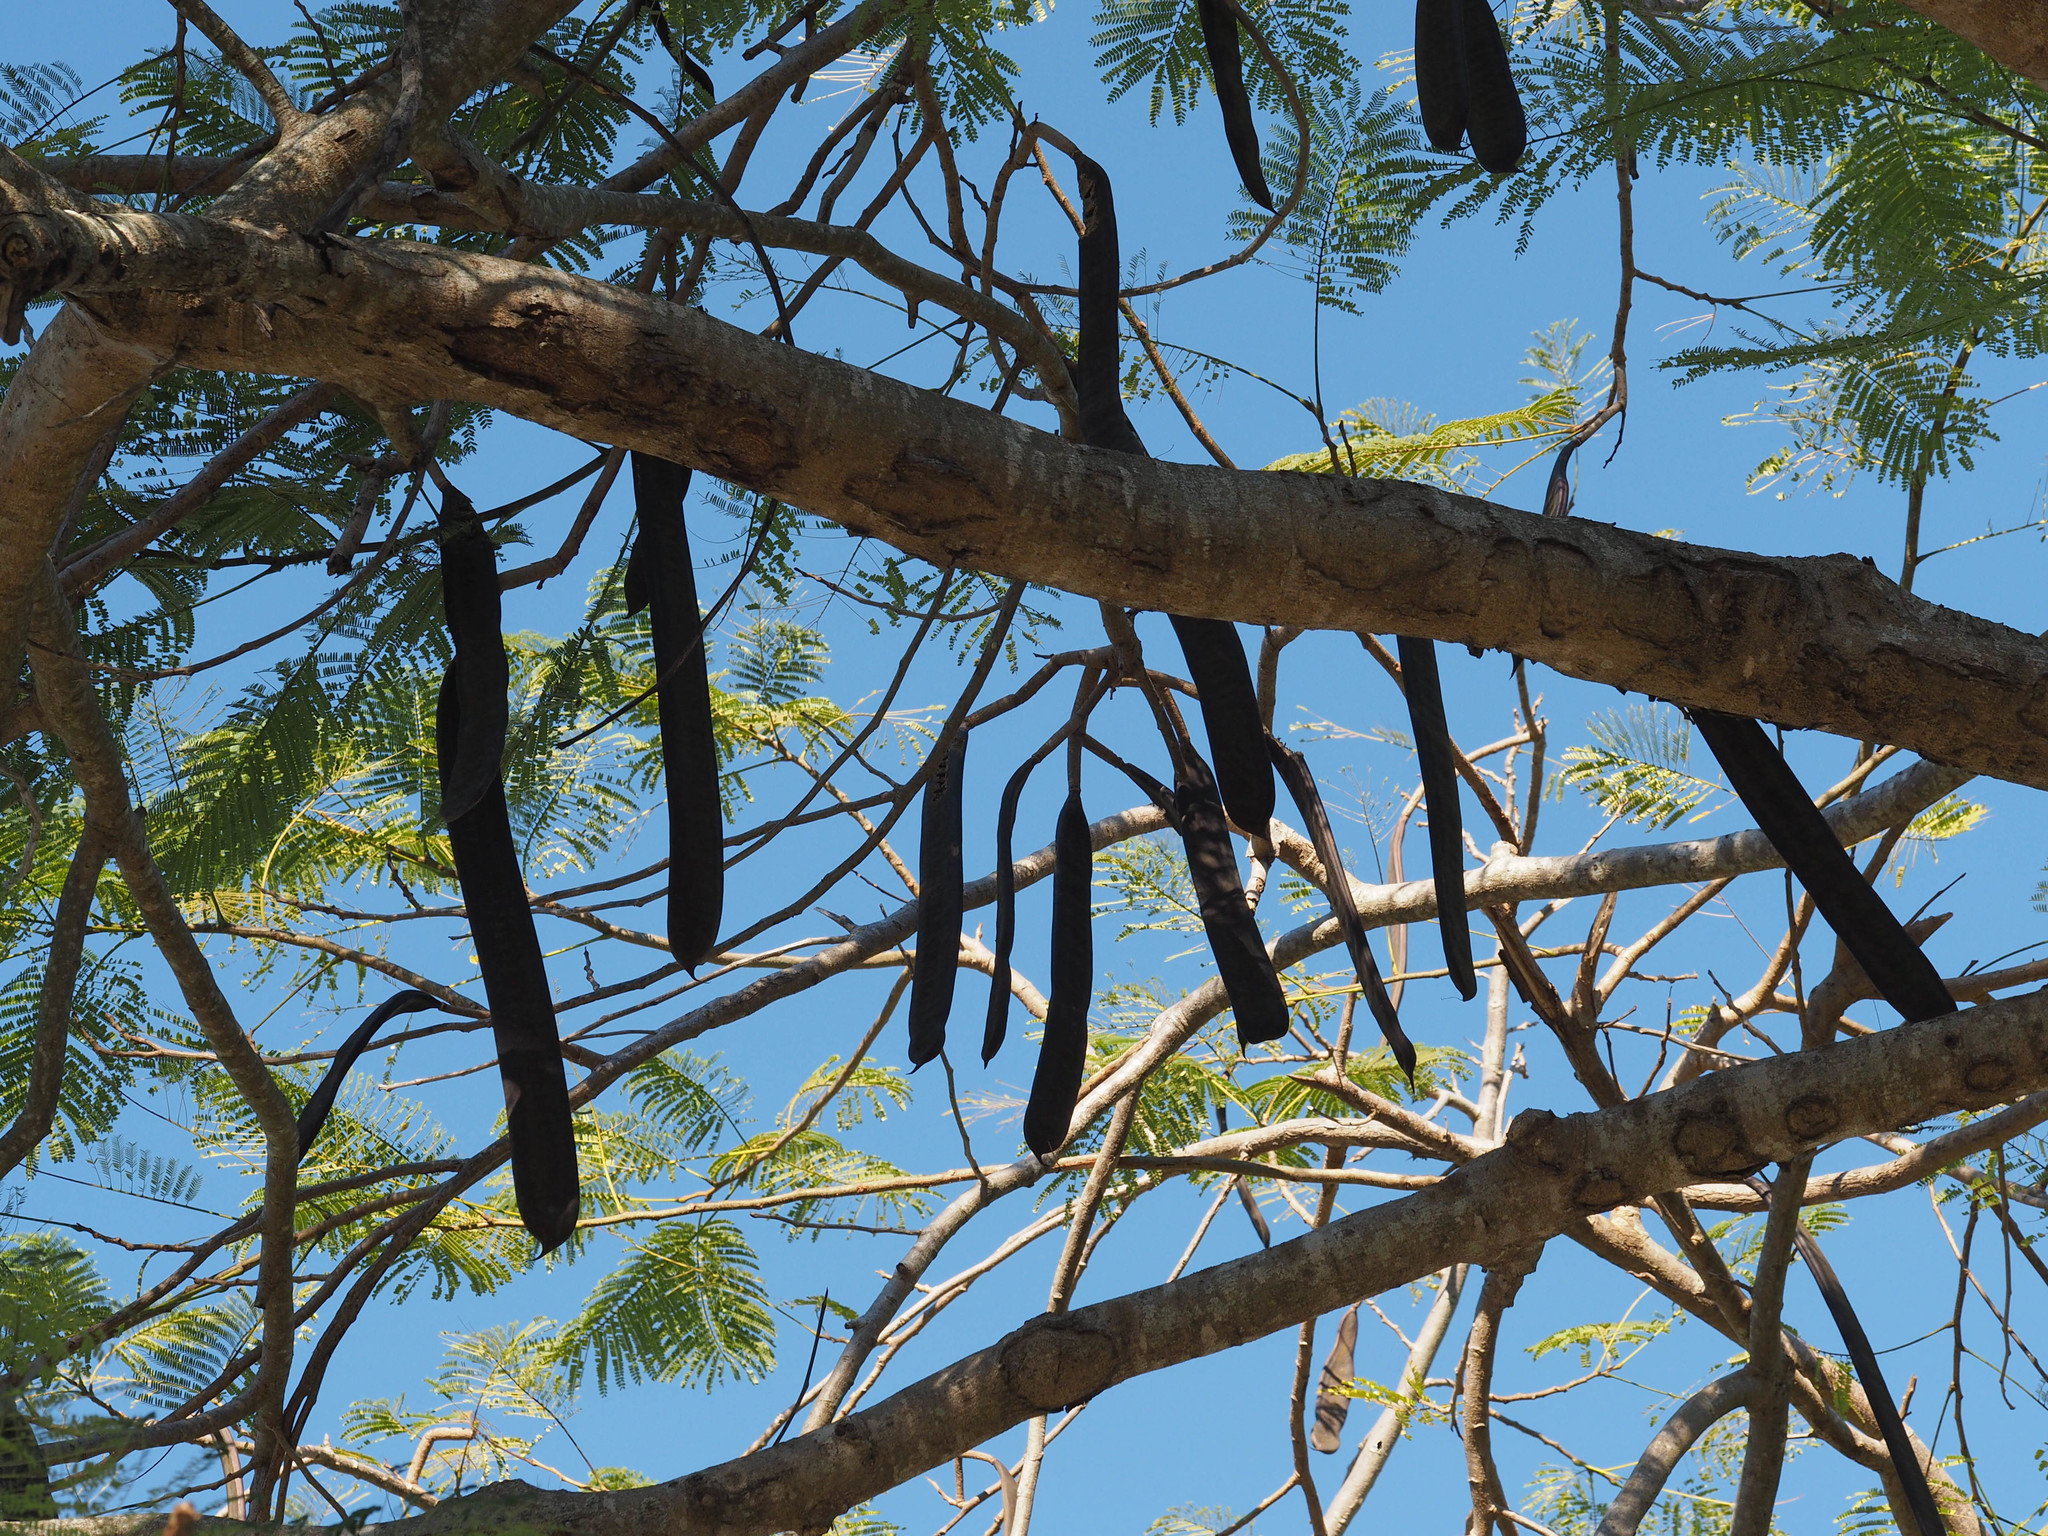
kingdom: Plantae
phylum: Tracheophyta
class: Magnoliopsida
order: Fabales
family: Fabaceae
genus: Delonix
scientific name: Delonix regia
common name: Royal poinciana
